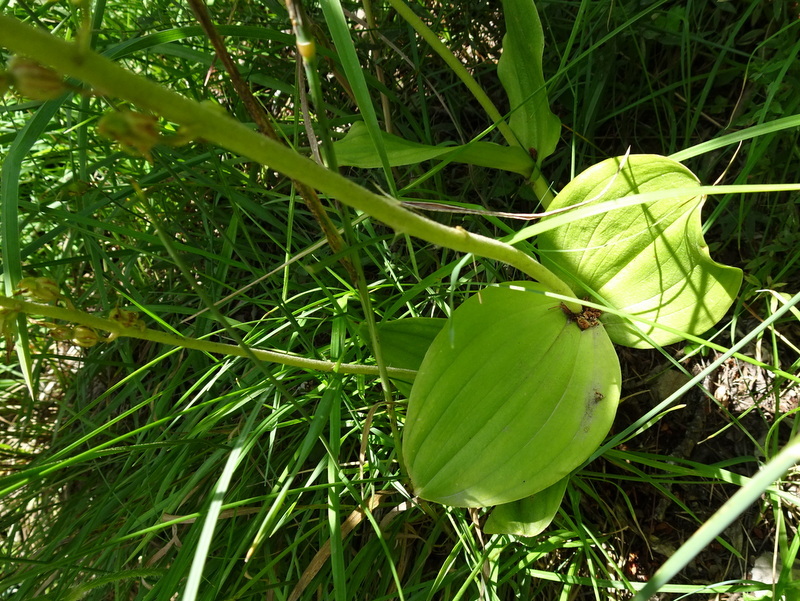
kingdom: Plantae
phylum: Tracheophyta
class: Liliopsida
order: Asparagales
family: Orchidaceae
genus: Neottia
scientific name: Neottia ovata
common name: Common twayblade
